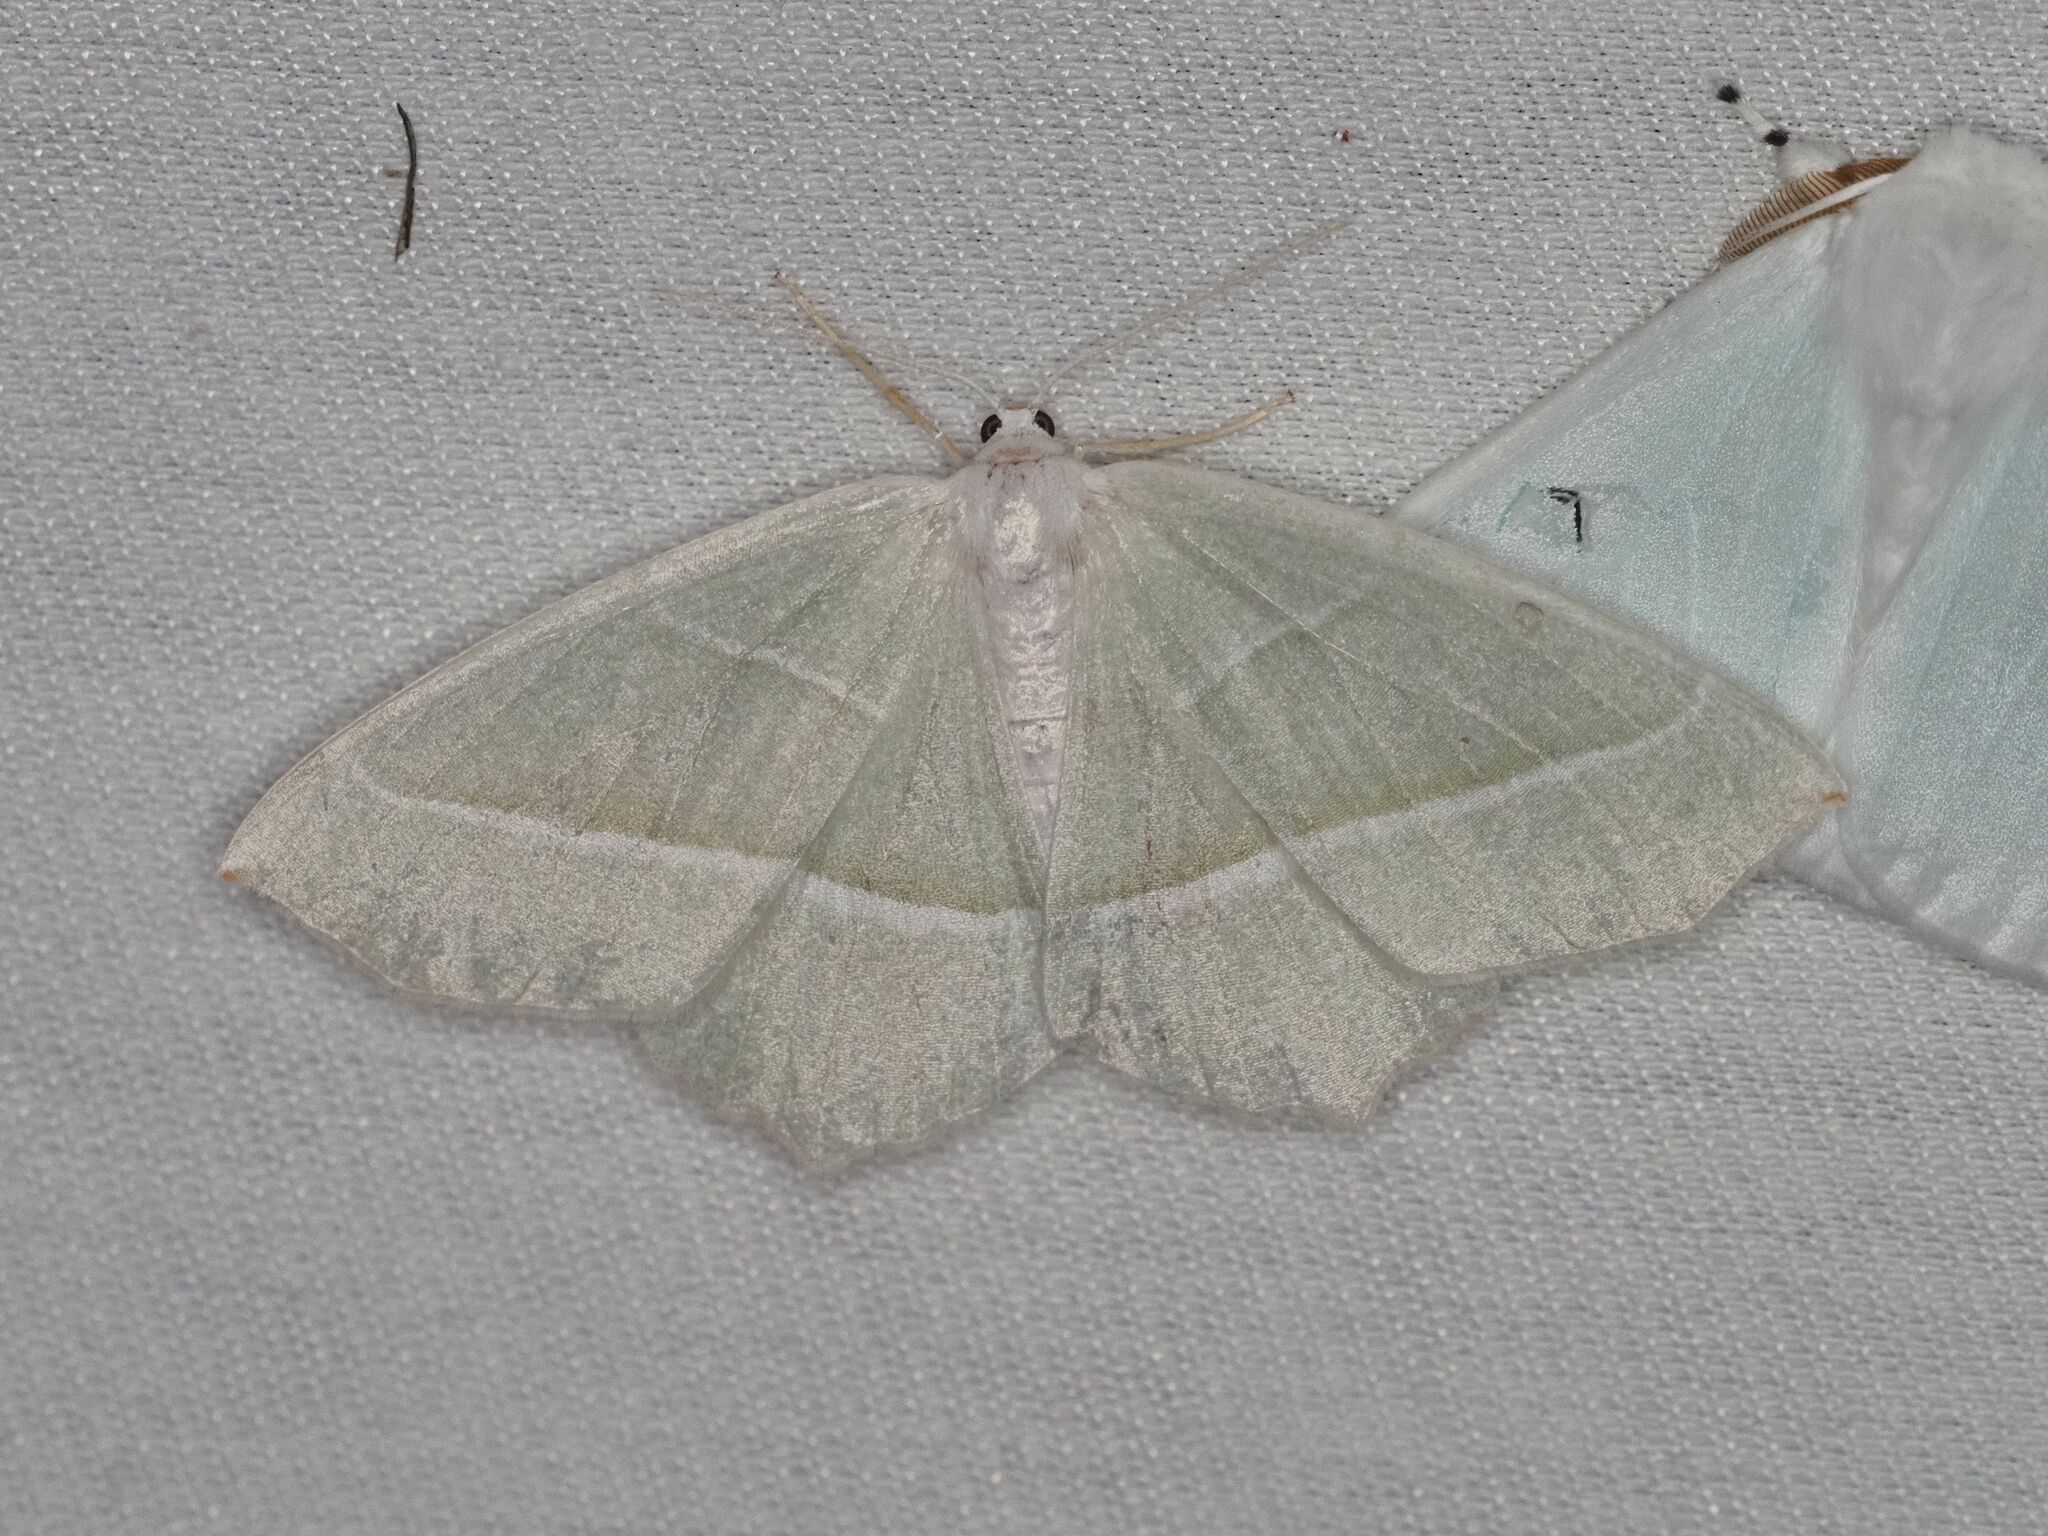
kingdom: Animalia
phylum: Arthropoda
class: Insecta
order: Lepidoptera
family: Geometridae
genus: Campaea
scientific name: Campaea margaritaria
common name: Light emerald
